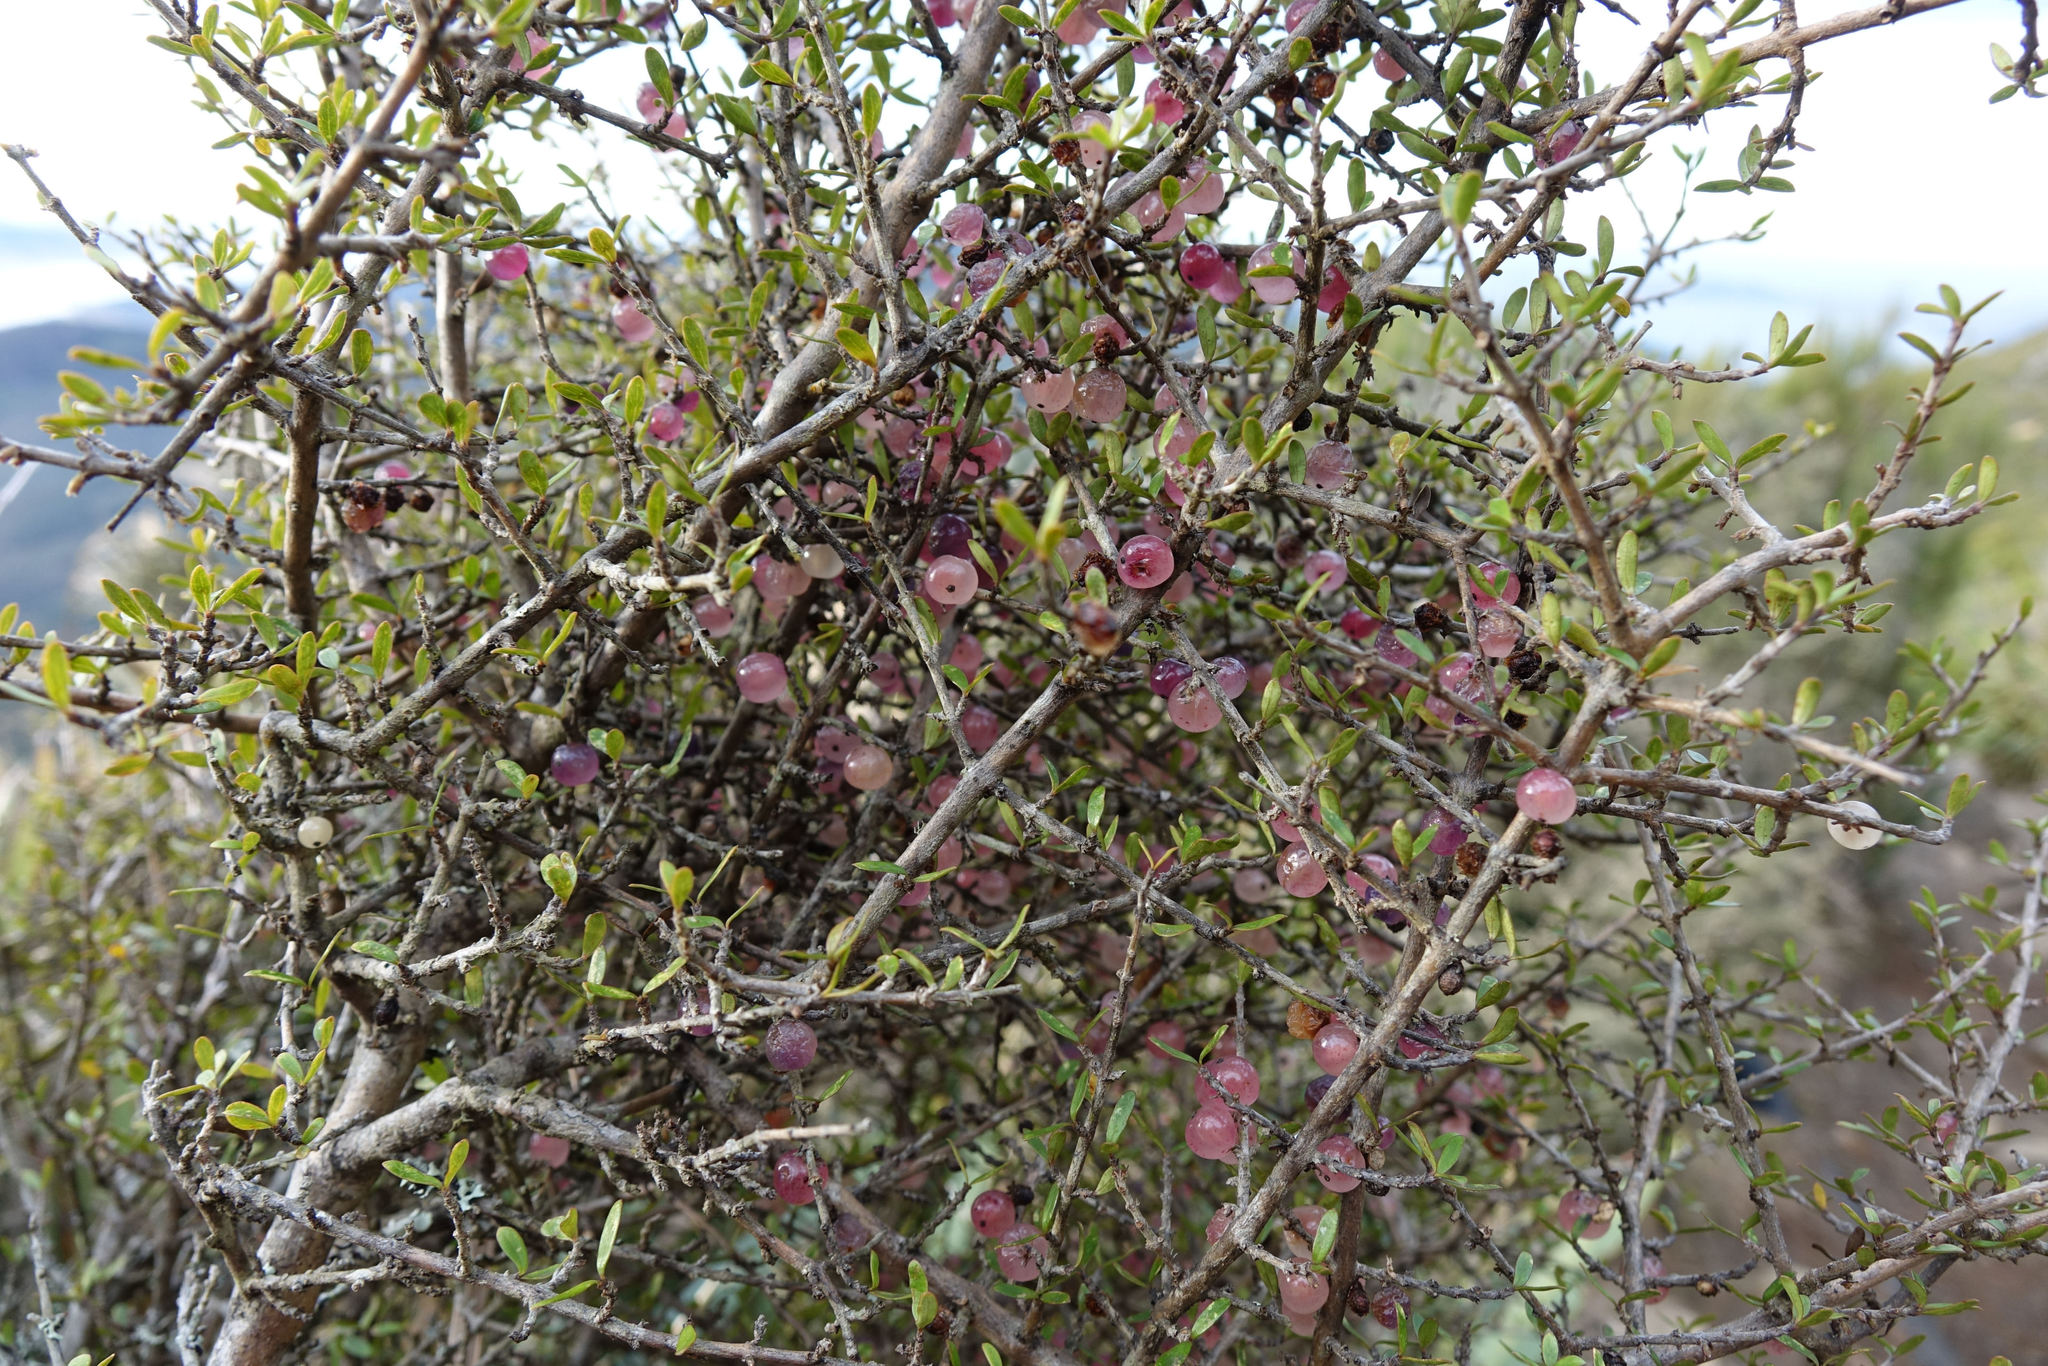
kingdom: Plantae
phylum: Tracheophyta
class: Magnoliopsida
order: Gentianales
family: Rubiaceae
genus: Coprosma
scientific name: Coprosma dumosa
